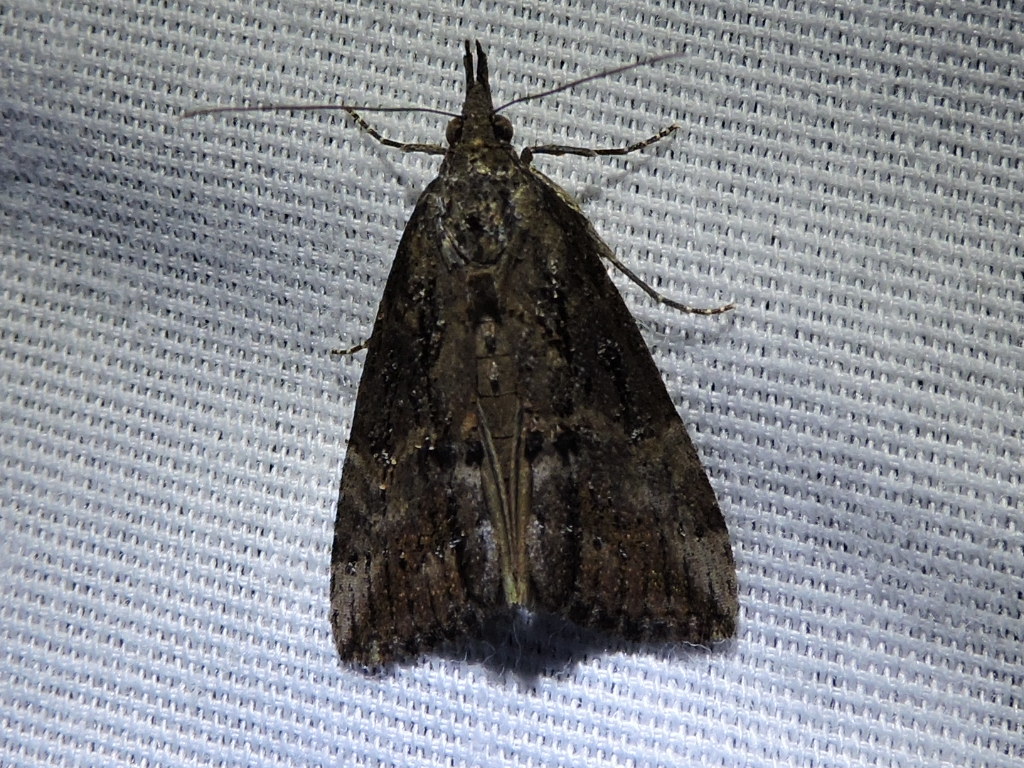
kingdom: Animalia
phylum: Arthropoda
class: Insecta
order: Lepidoptera
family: Erebidae
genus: Hypena
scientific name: Hypena scabra
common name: Green cloverworm
